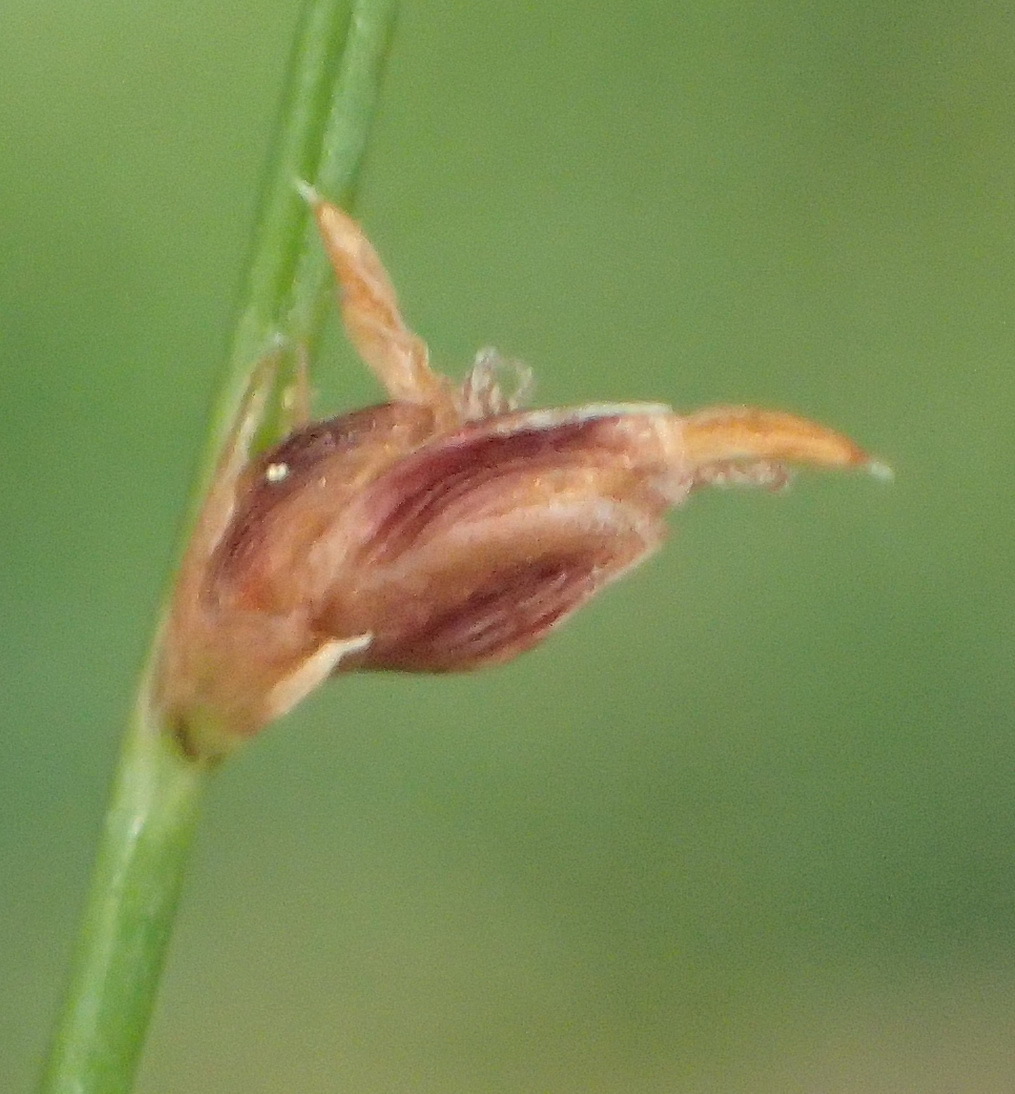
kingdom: Plantae
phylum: Tracheophyta
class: Liliopsida
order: Poales
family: Cyperaceae
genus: Ficinia
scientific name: Ficinia acuminata
